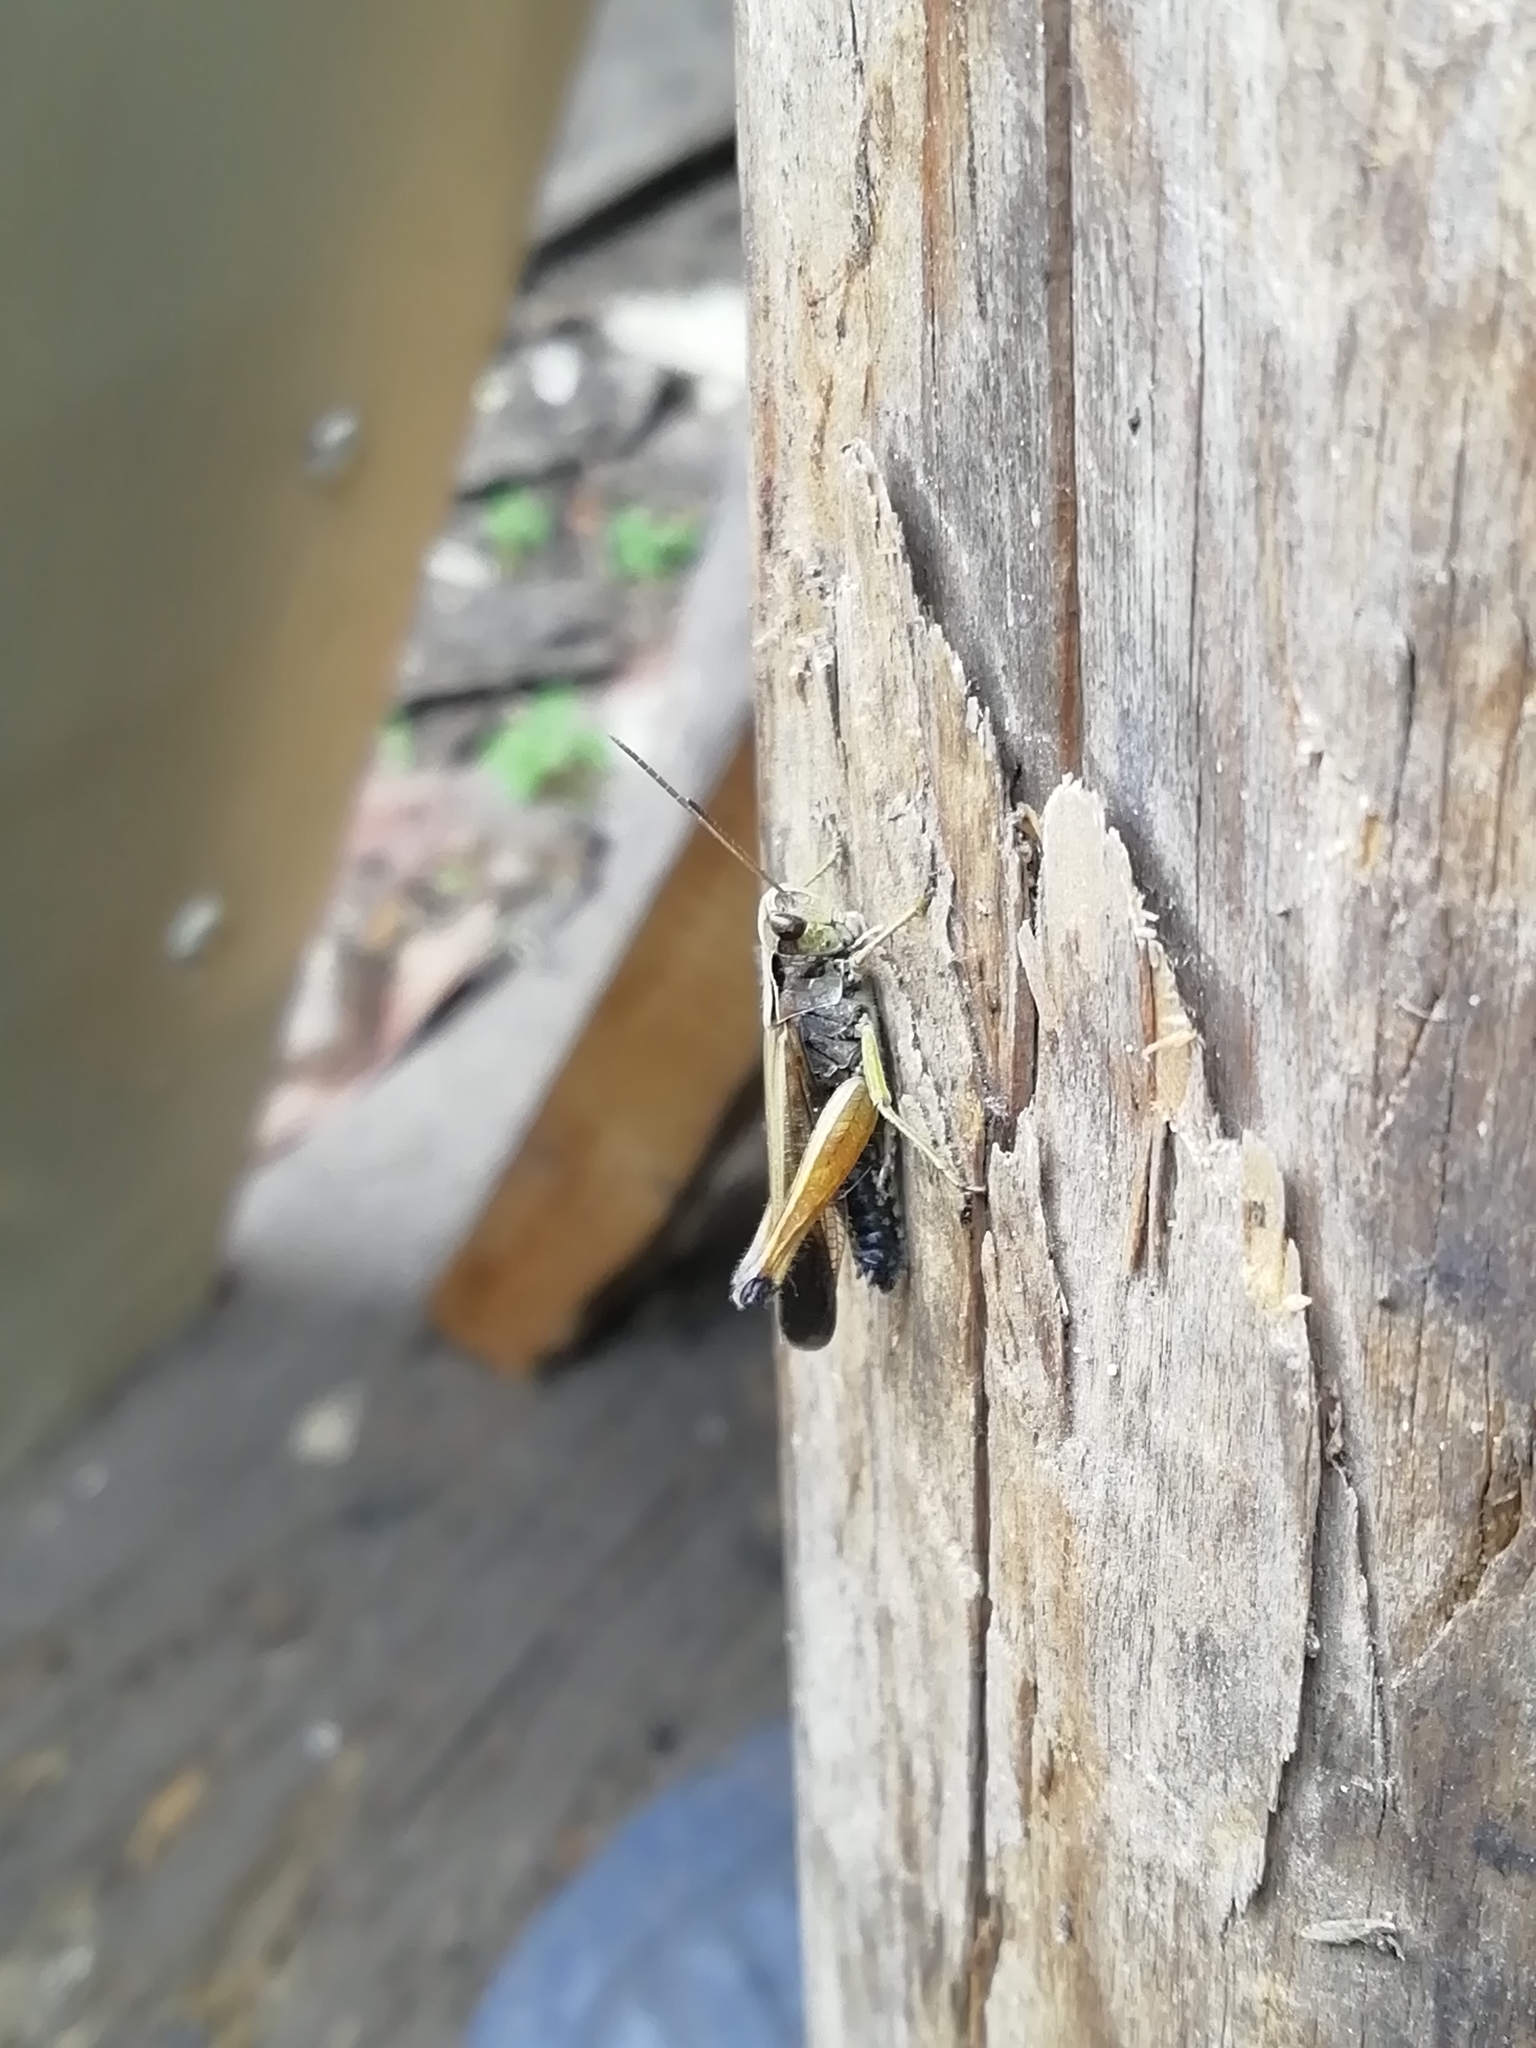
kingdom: Animalia
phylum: Arthropoda
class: Insecta
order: Orthoptera
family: Acrididae
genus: Omocestus
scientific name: Omocestus viridulus
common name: Common green grasshopper
